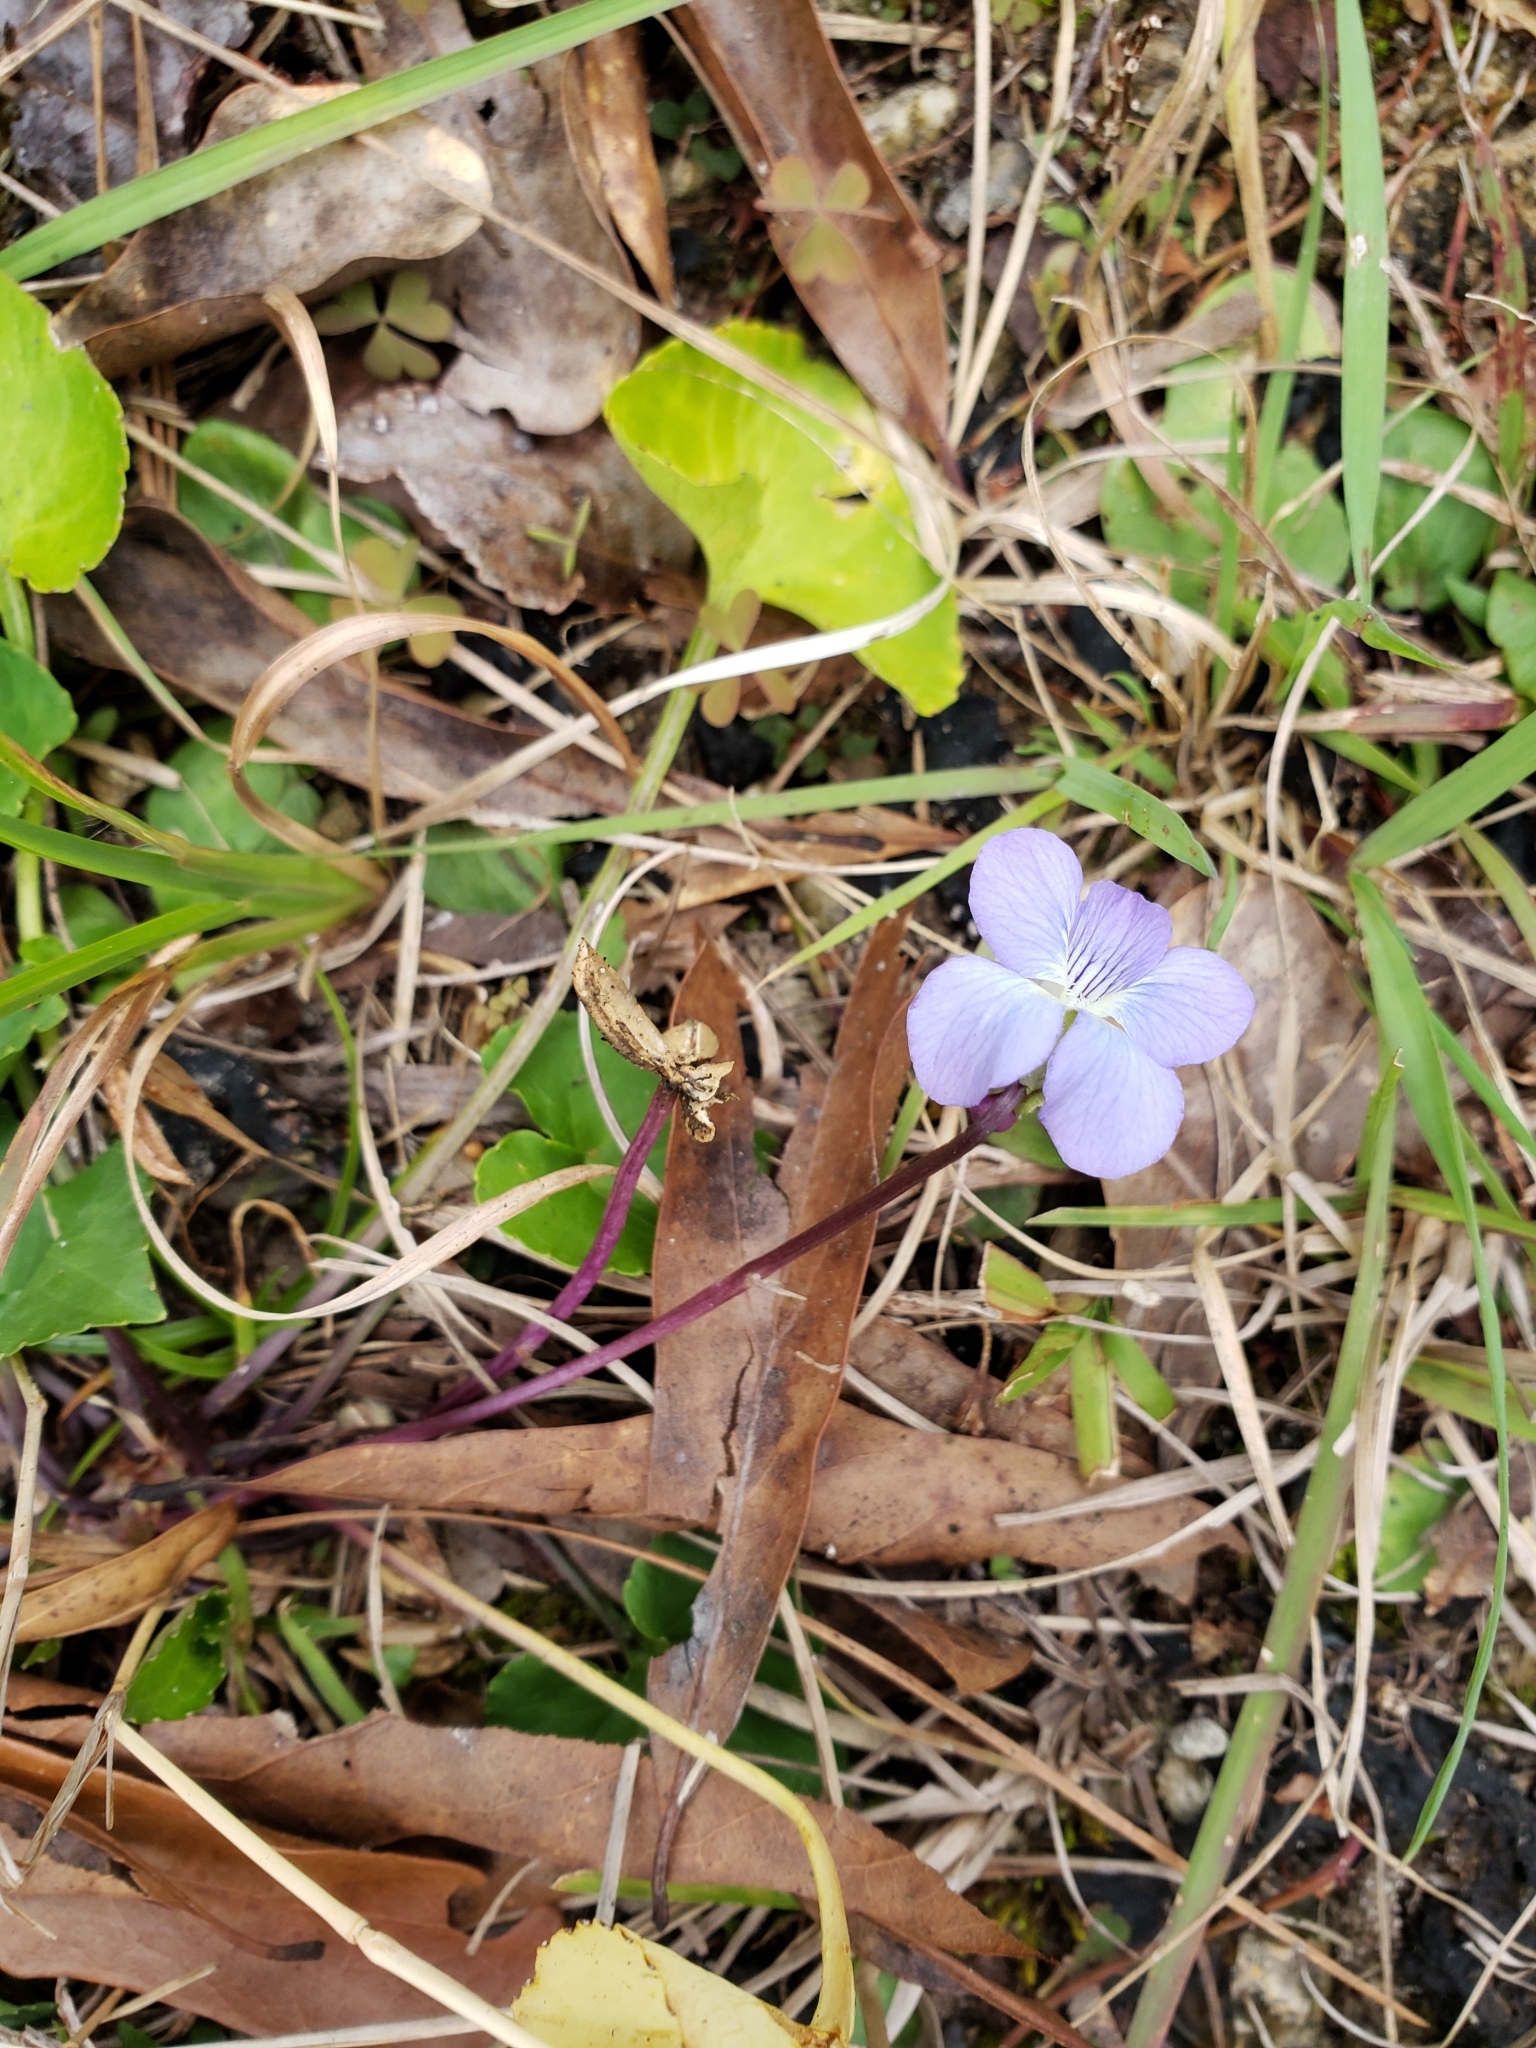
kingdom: Plantae
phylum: Tracheophyta
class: Magnoliopsida
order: Malpighiales
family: Violaceae
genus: Viola
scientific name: Viola sororia
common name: Dooryard violet
